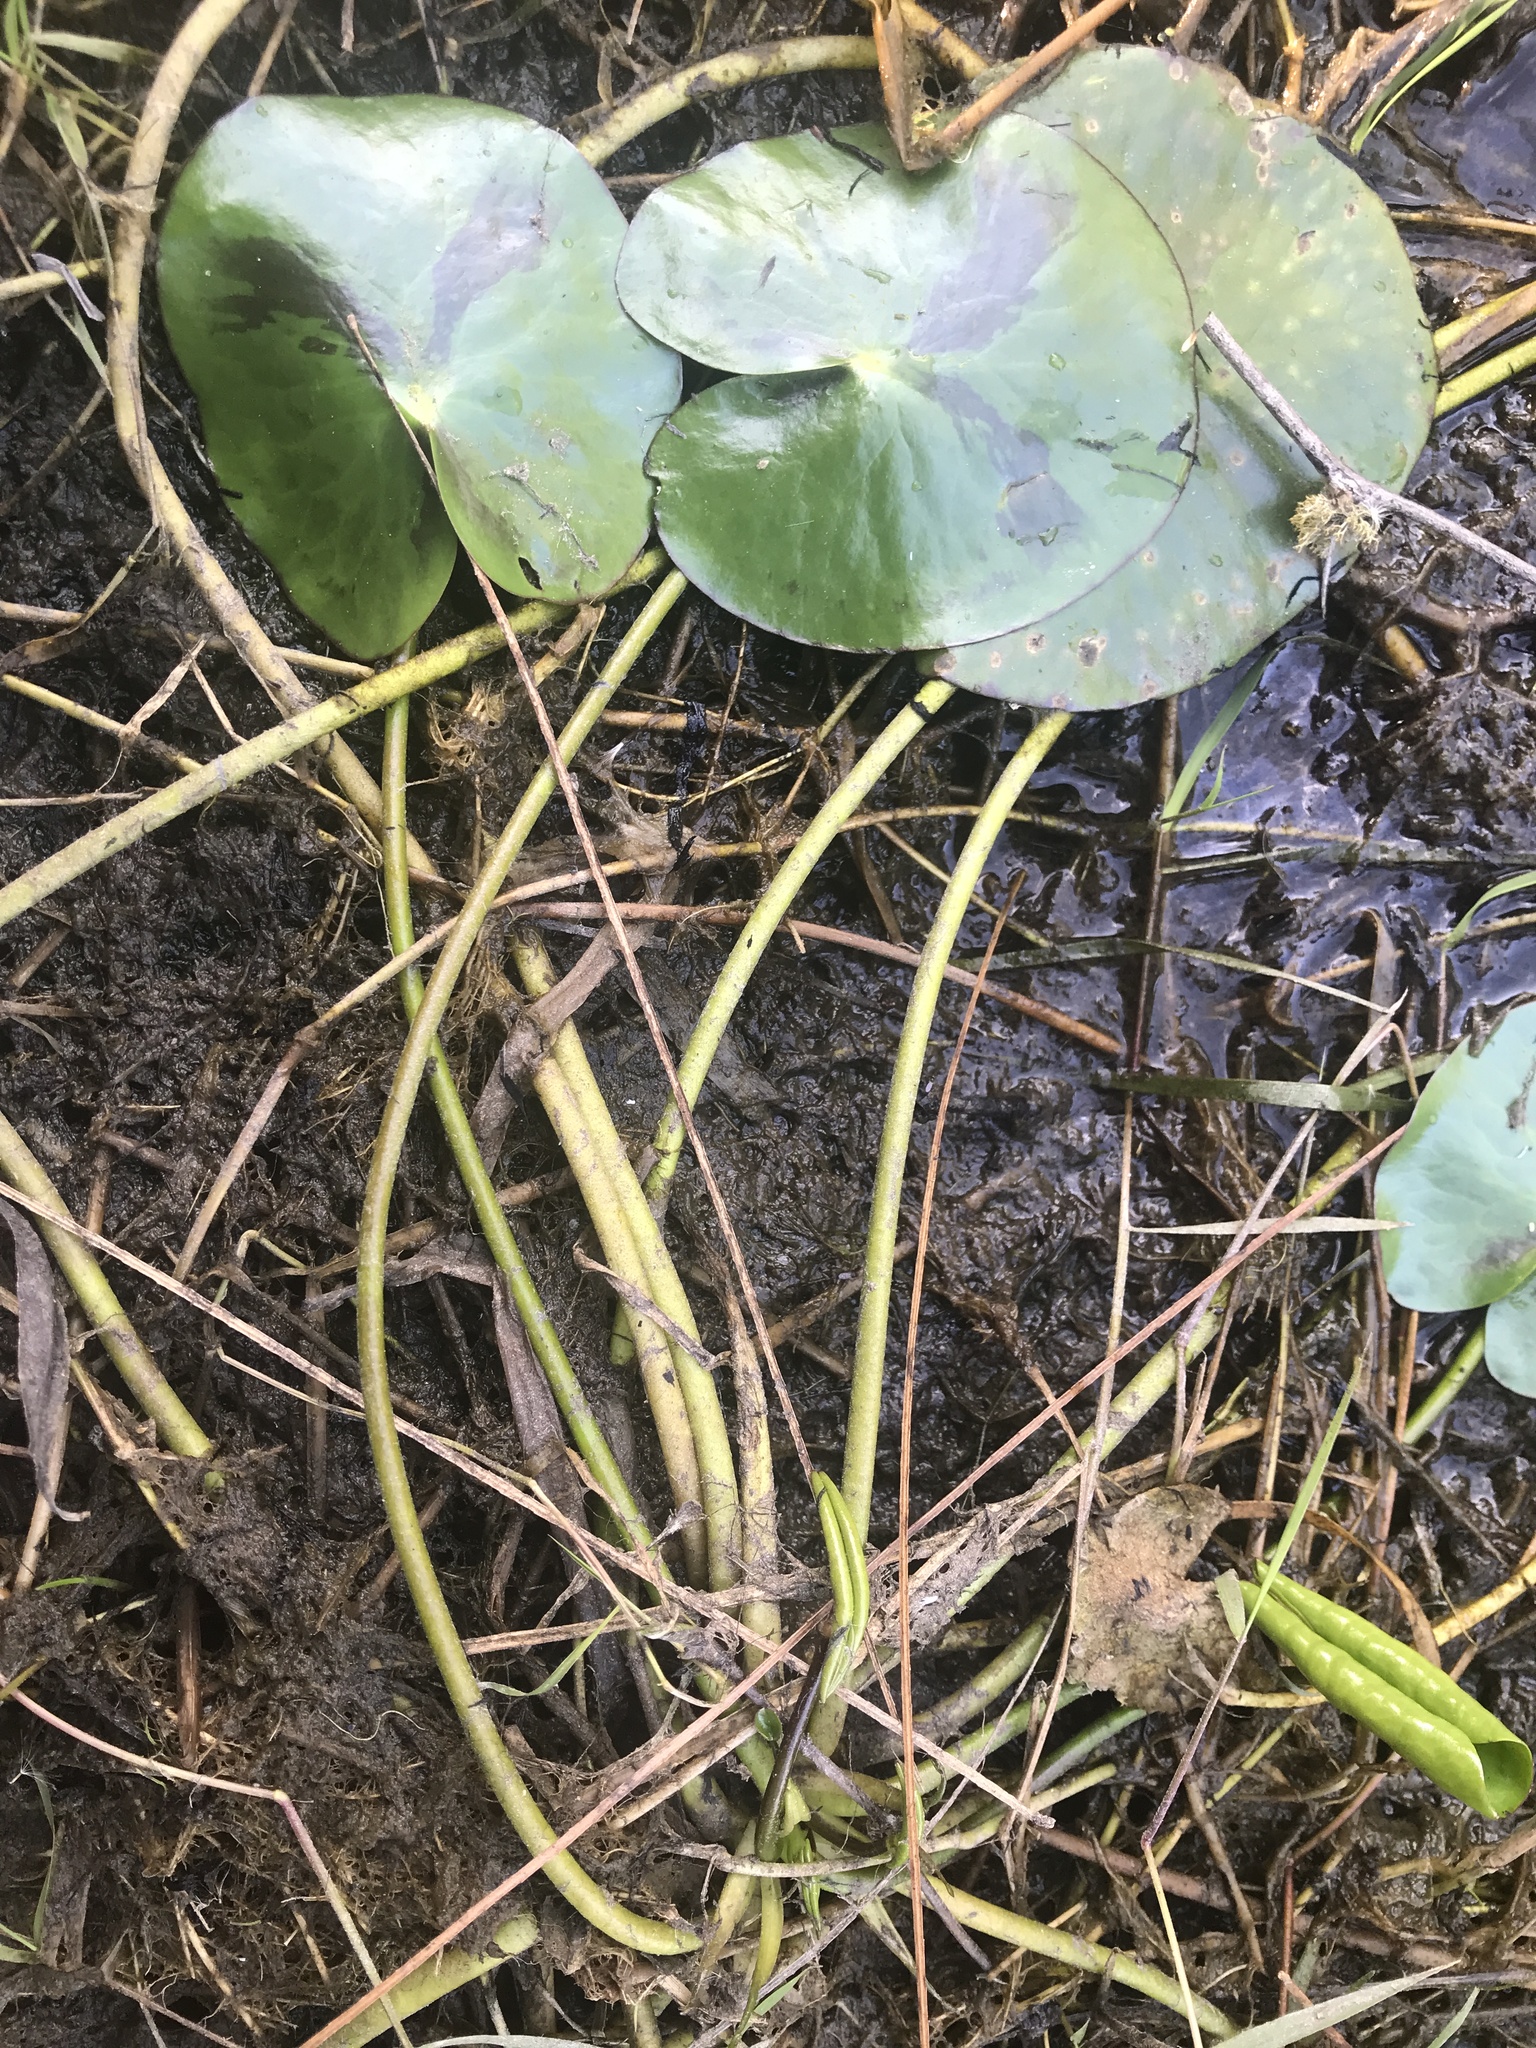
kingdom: Plantae
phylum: Tracheophyta
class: Magnoliopsida
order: Asterales
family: Menyanthaceae
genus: Nymphoides
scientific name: Nymphoides humboldtiana
